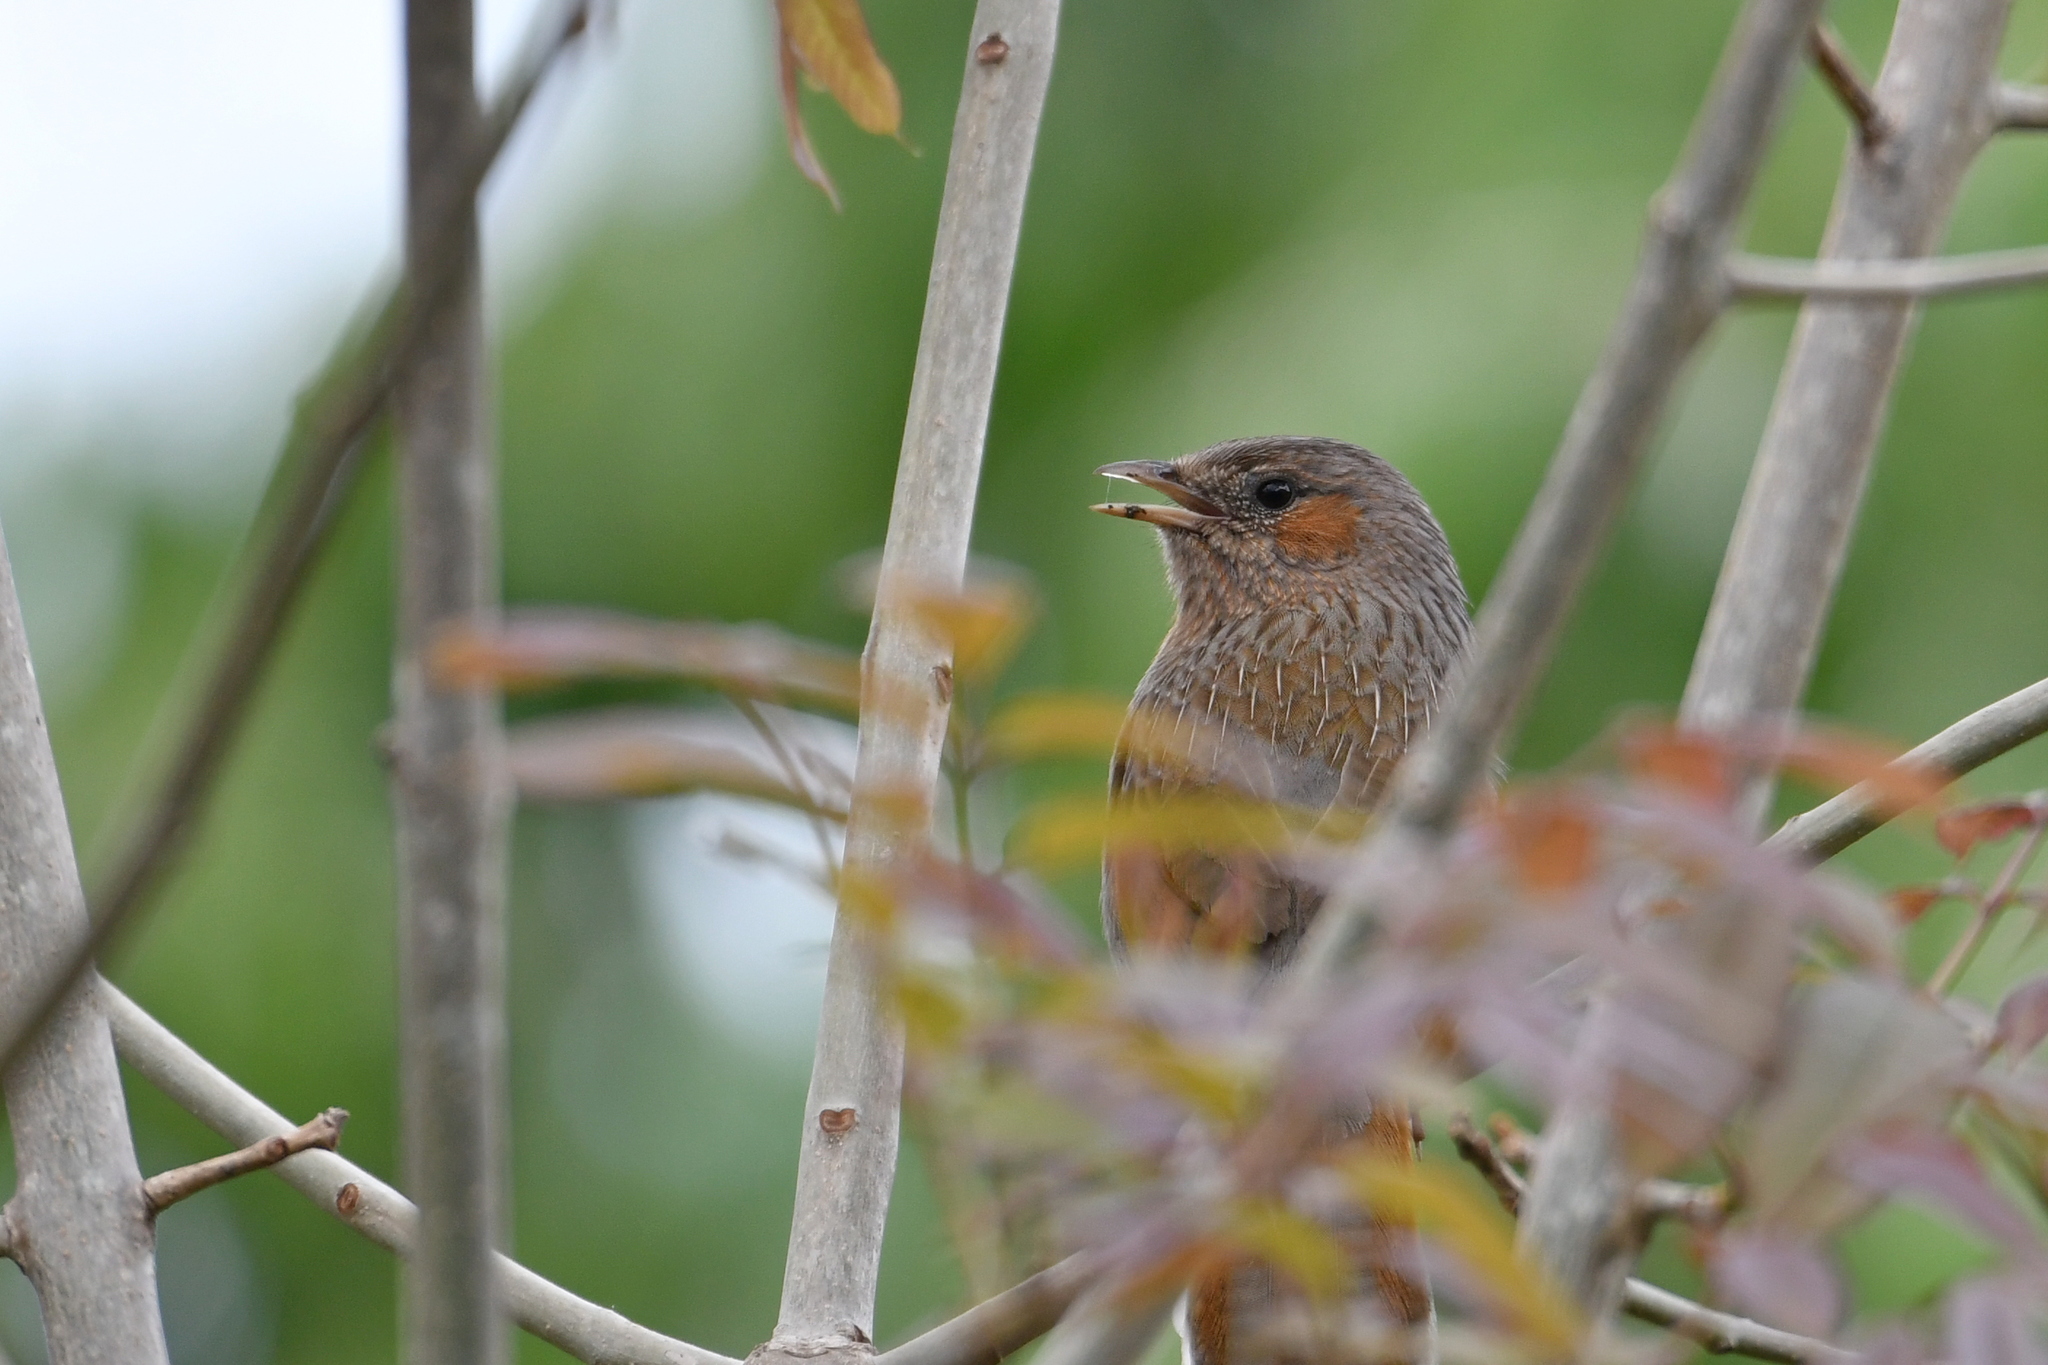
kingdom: Animalia
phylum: Chordata
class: Aves
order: Passeriformes
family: Leiothrichidae
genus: Trochalopteron
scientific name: Trochalopteron lineatum
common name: Streaked laughingthrush
